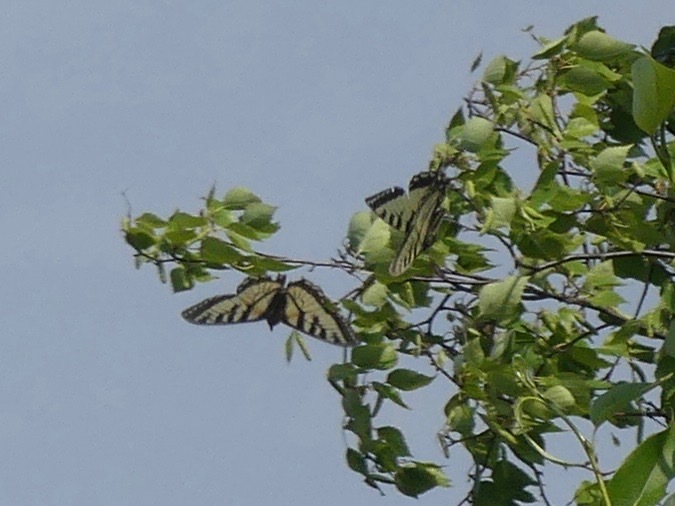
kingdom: Animalia
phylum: Arthropoda
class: Insecta
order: Lepidoptera
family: Papilionidae
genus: Papilio
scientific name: Papilio canadensis
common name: Canadian tiger swallowtail
